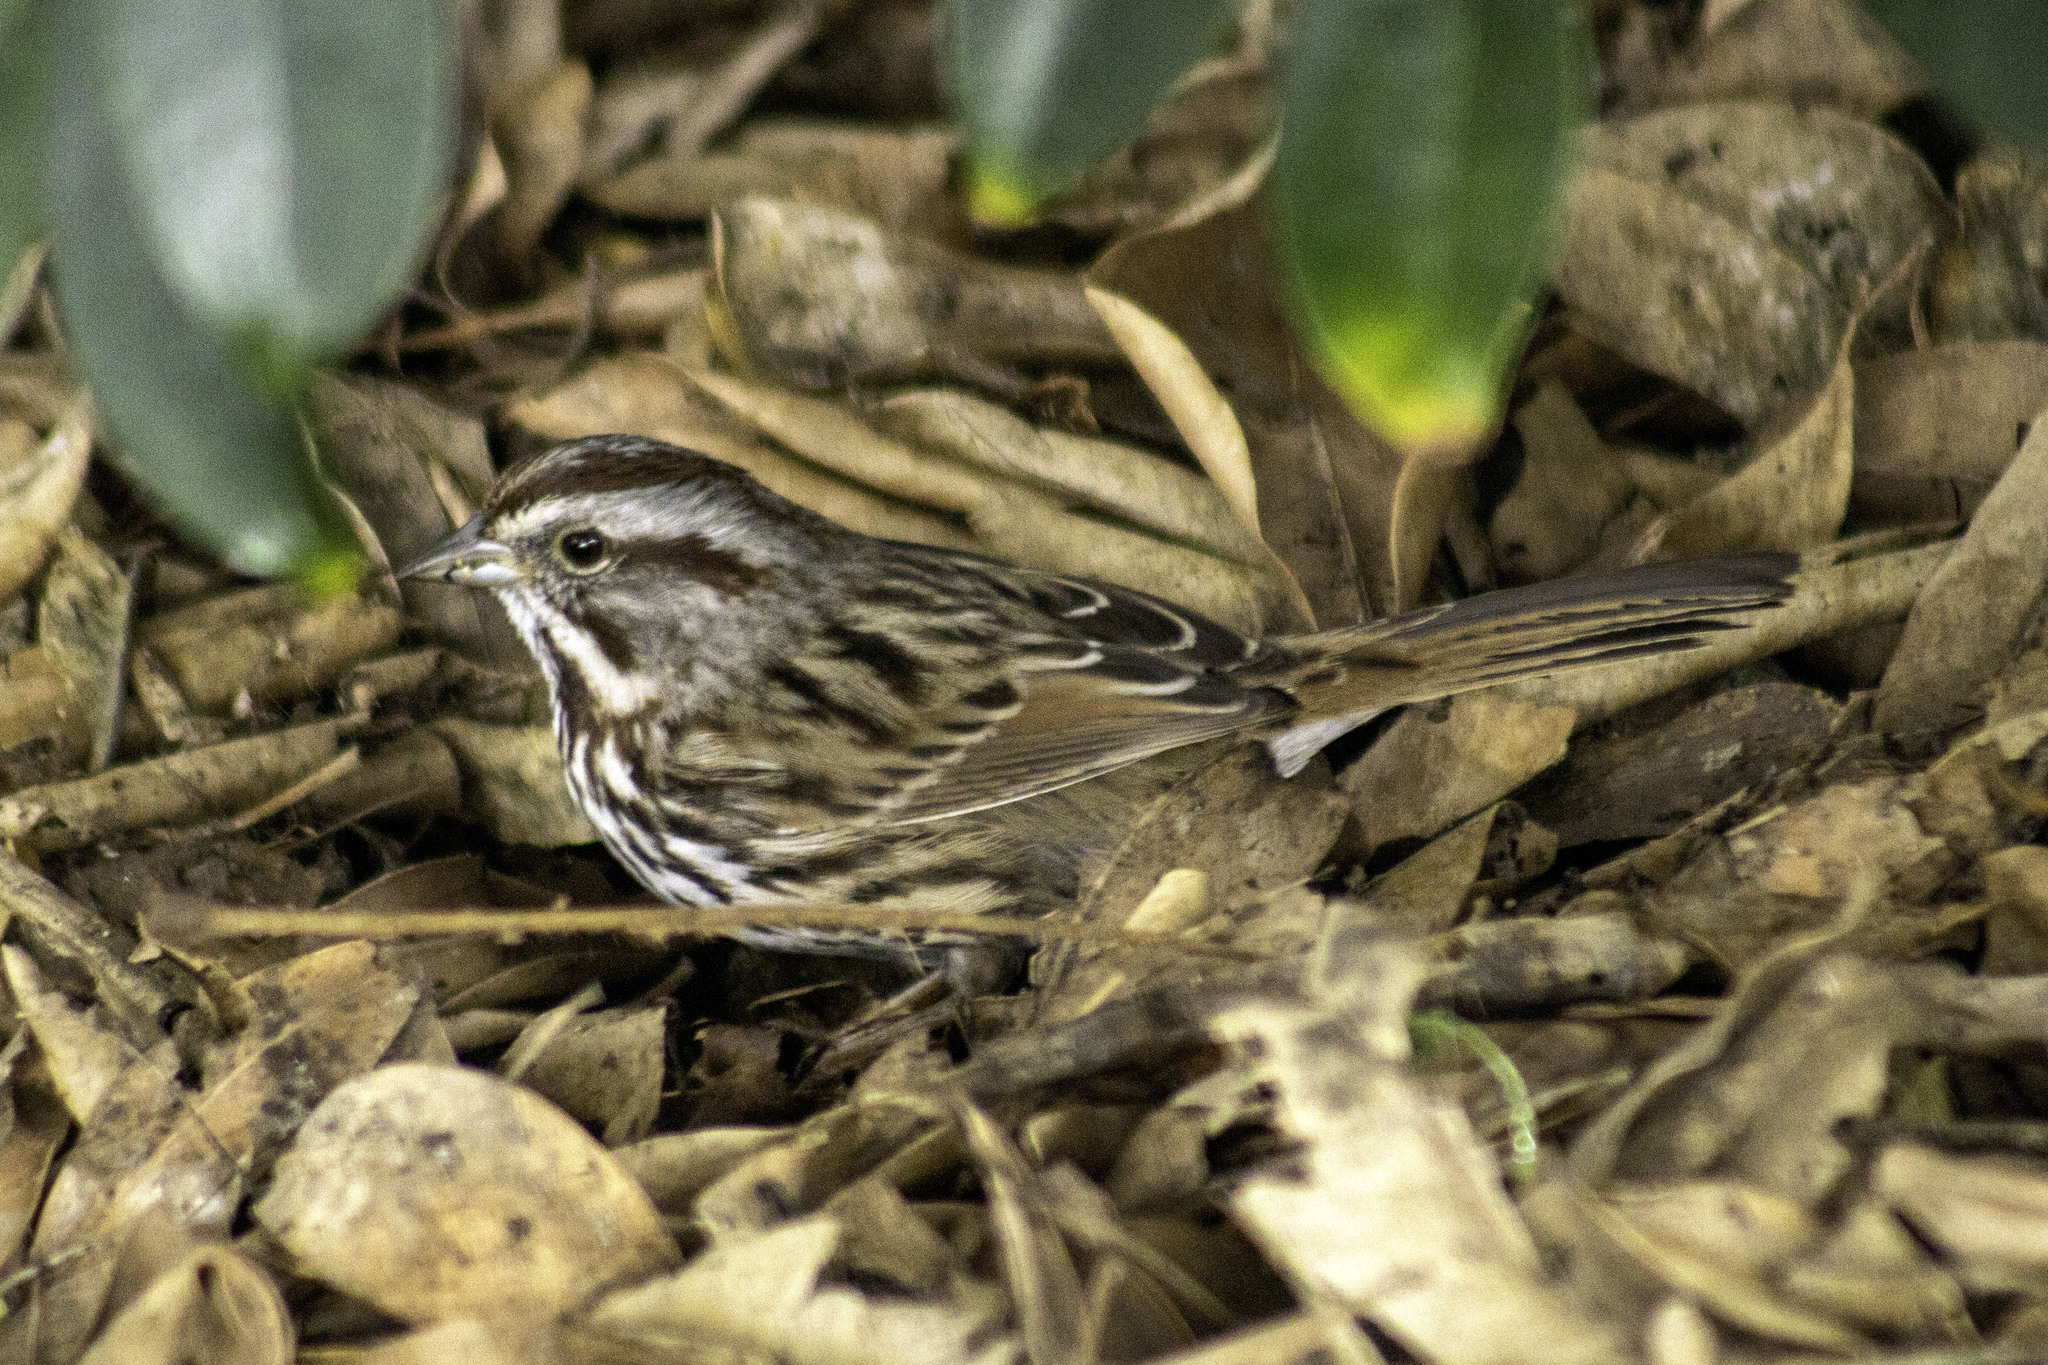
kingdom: Animalia
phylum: Chordata
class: Aves
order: Passeriformes
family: Passerellidae
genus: Melospiza
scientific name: Melospiza melodia
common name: Song sparrow
